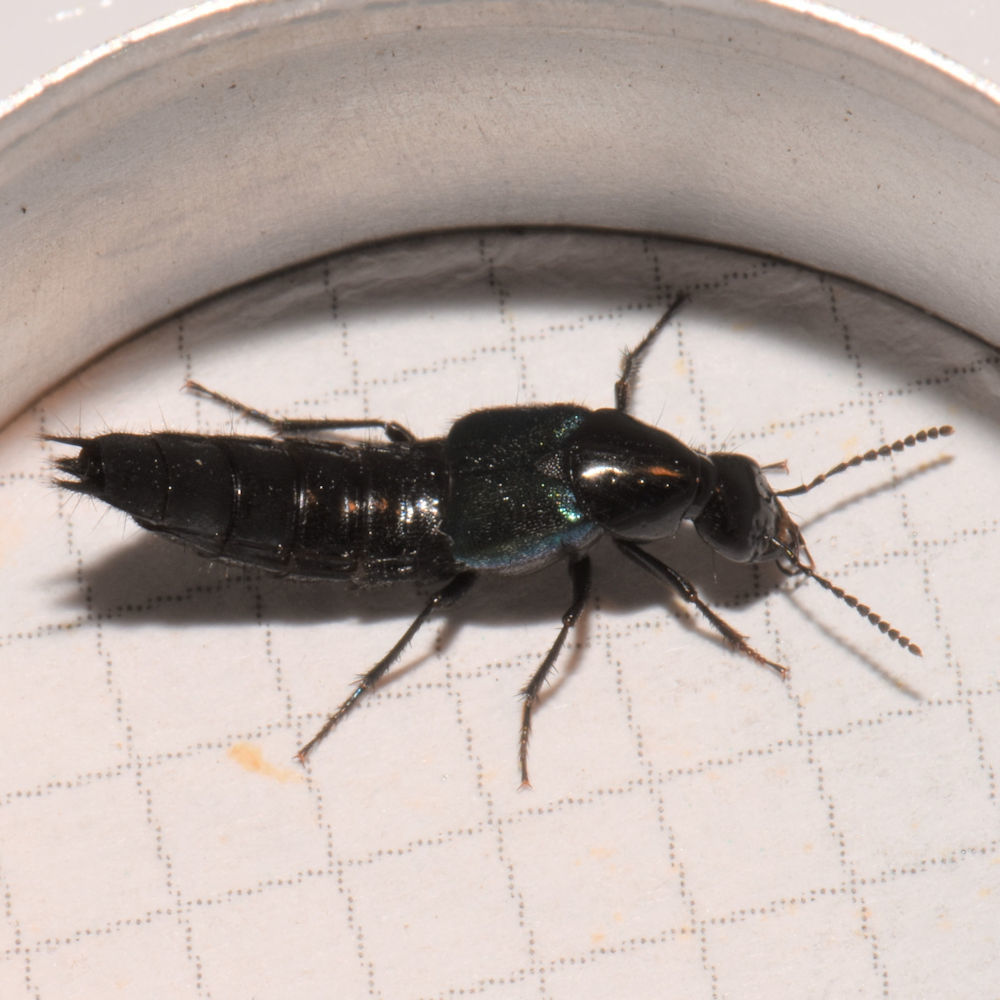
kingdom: Animalia
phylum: Arthropoda
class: Insecta
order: Coleoptera
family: Staphylinidae
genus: Philonthus
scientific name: Philonthus caeruleipennis
